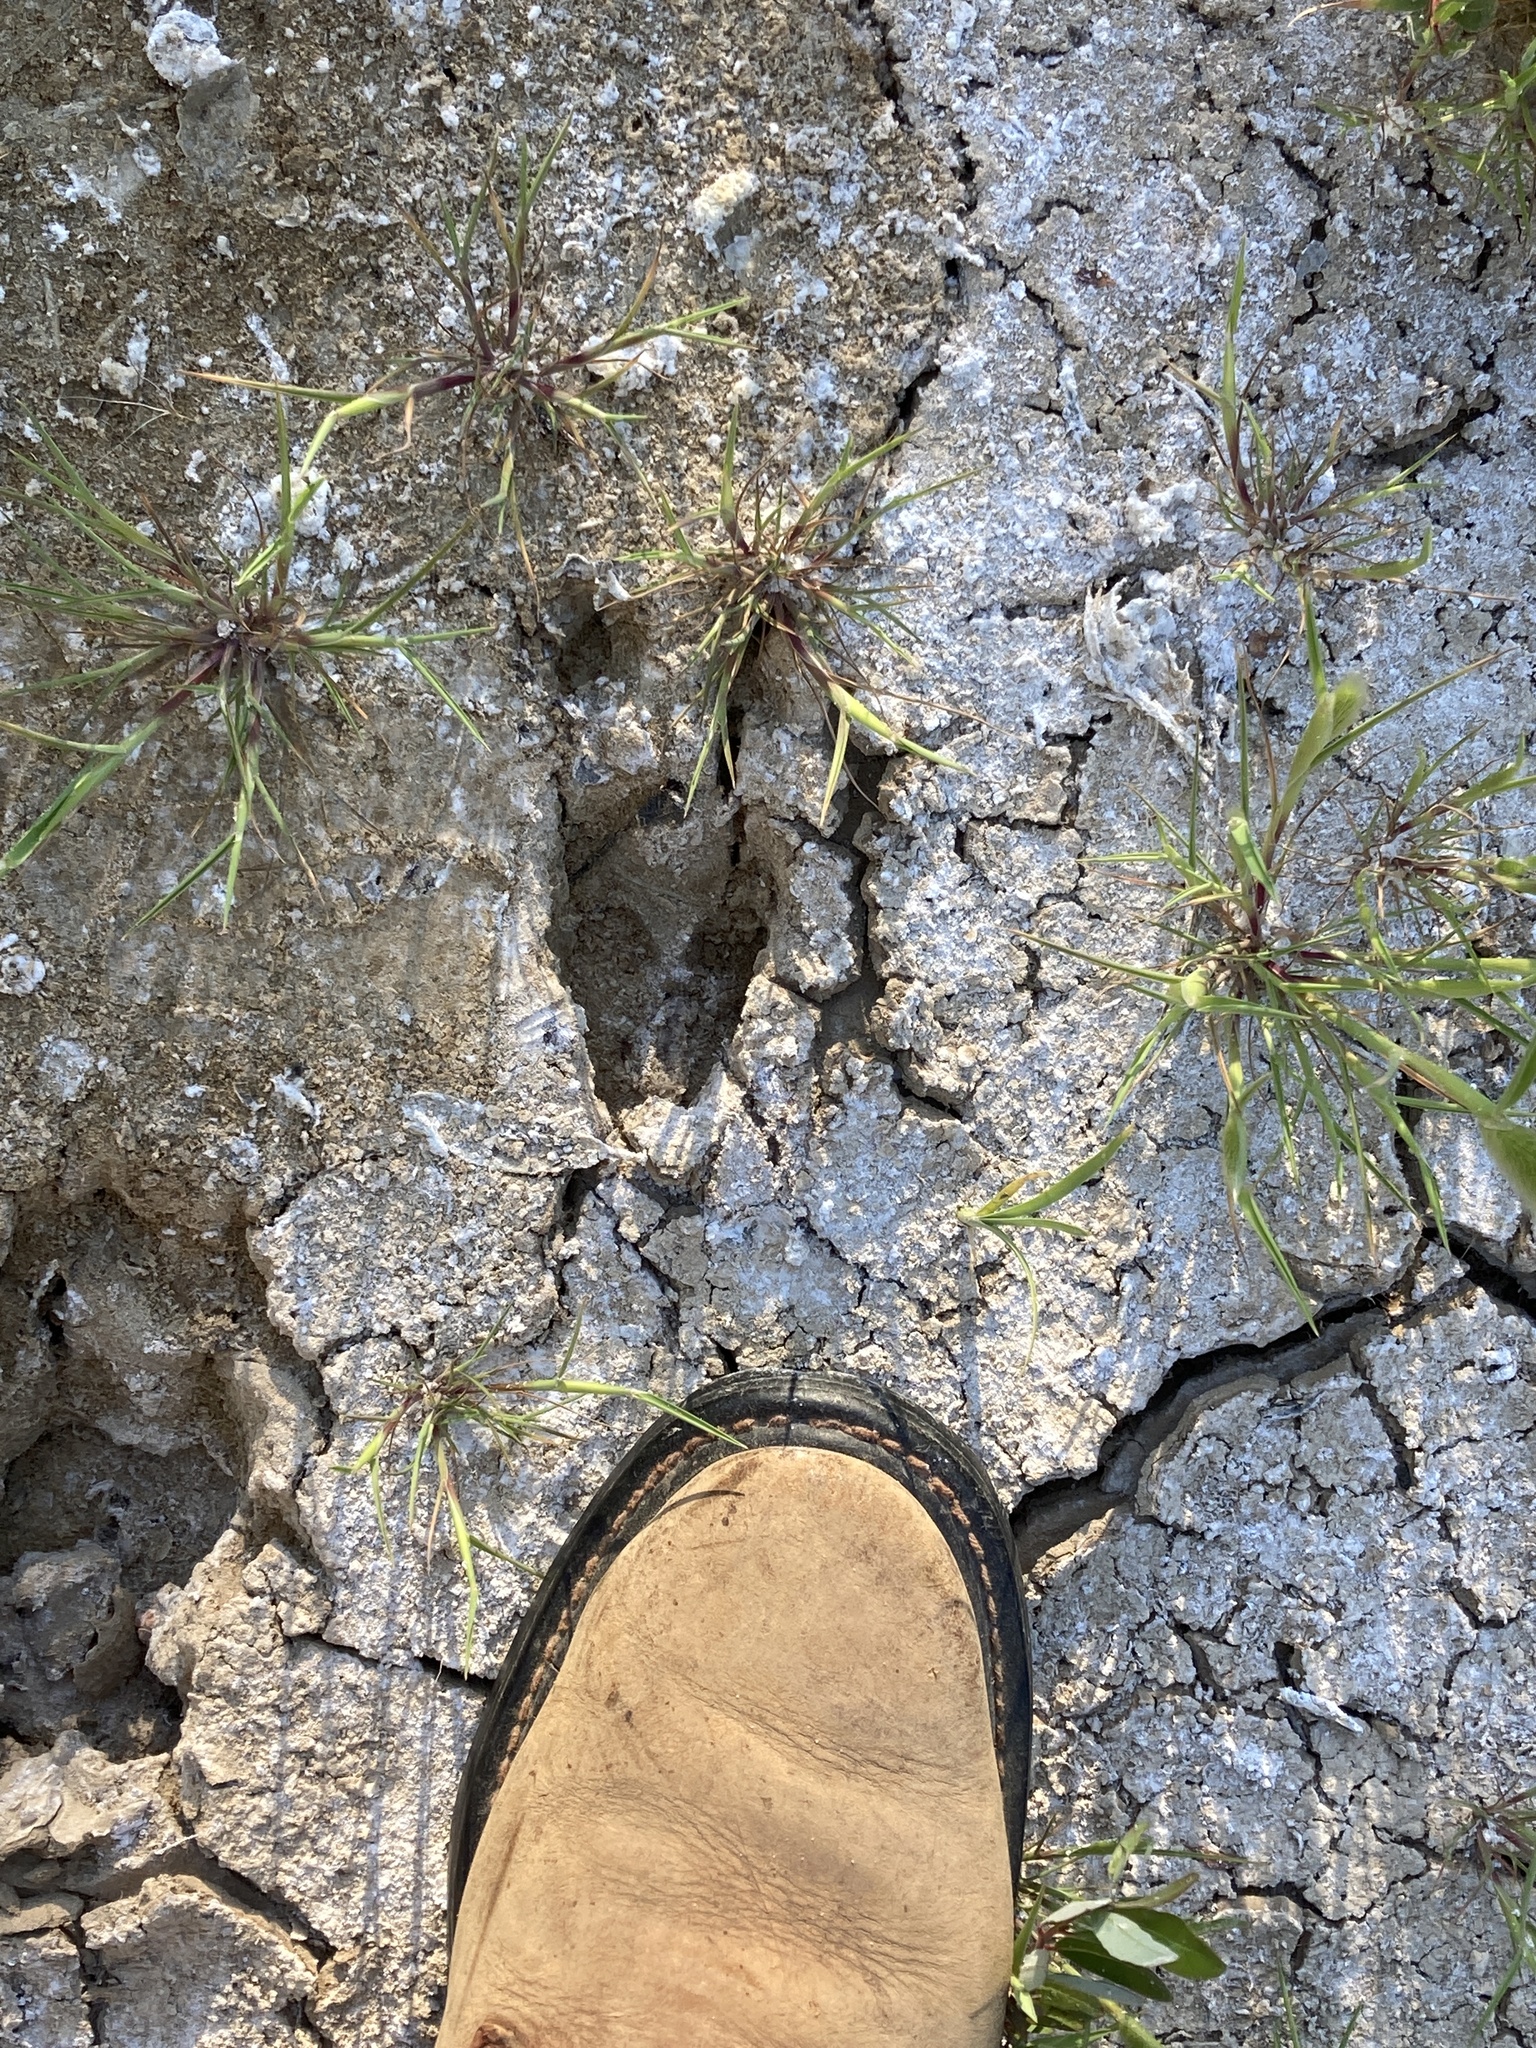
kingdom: Animalia
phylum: Chordata
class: Mammalia
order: Artiodactyla
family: Cervidae
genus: Odocoileus
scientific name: Odocoileus hemionus
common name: Mule deer
